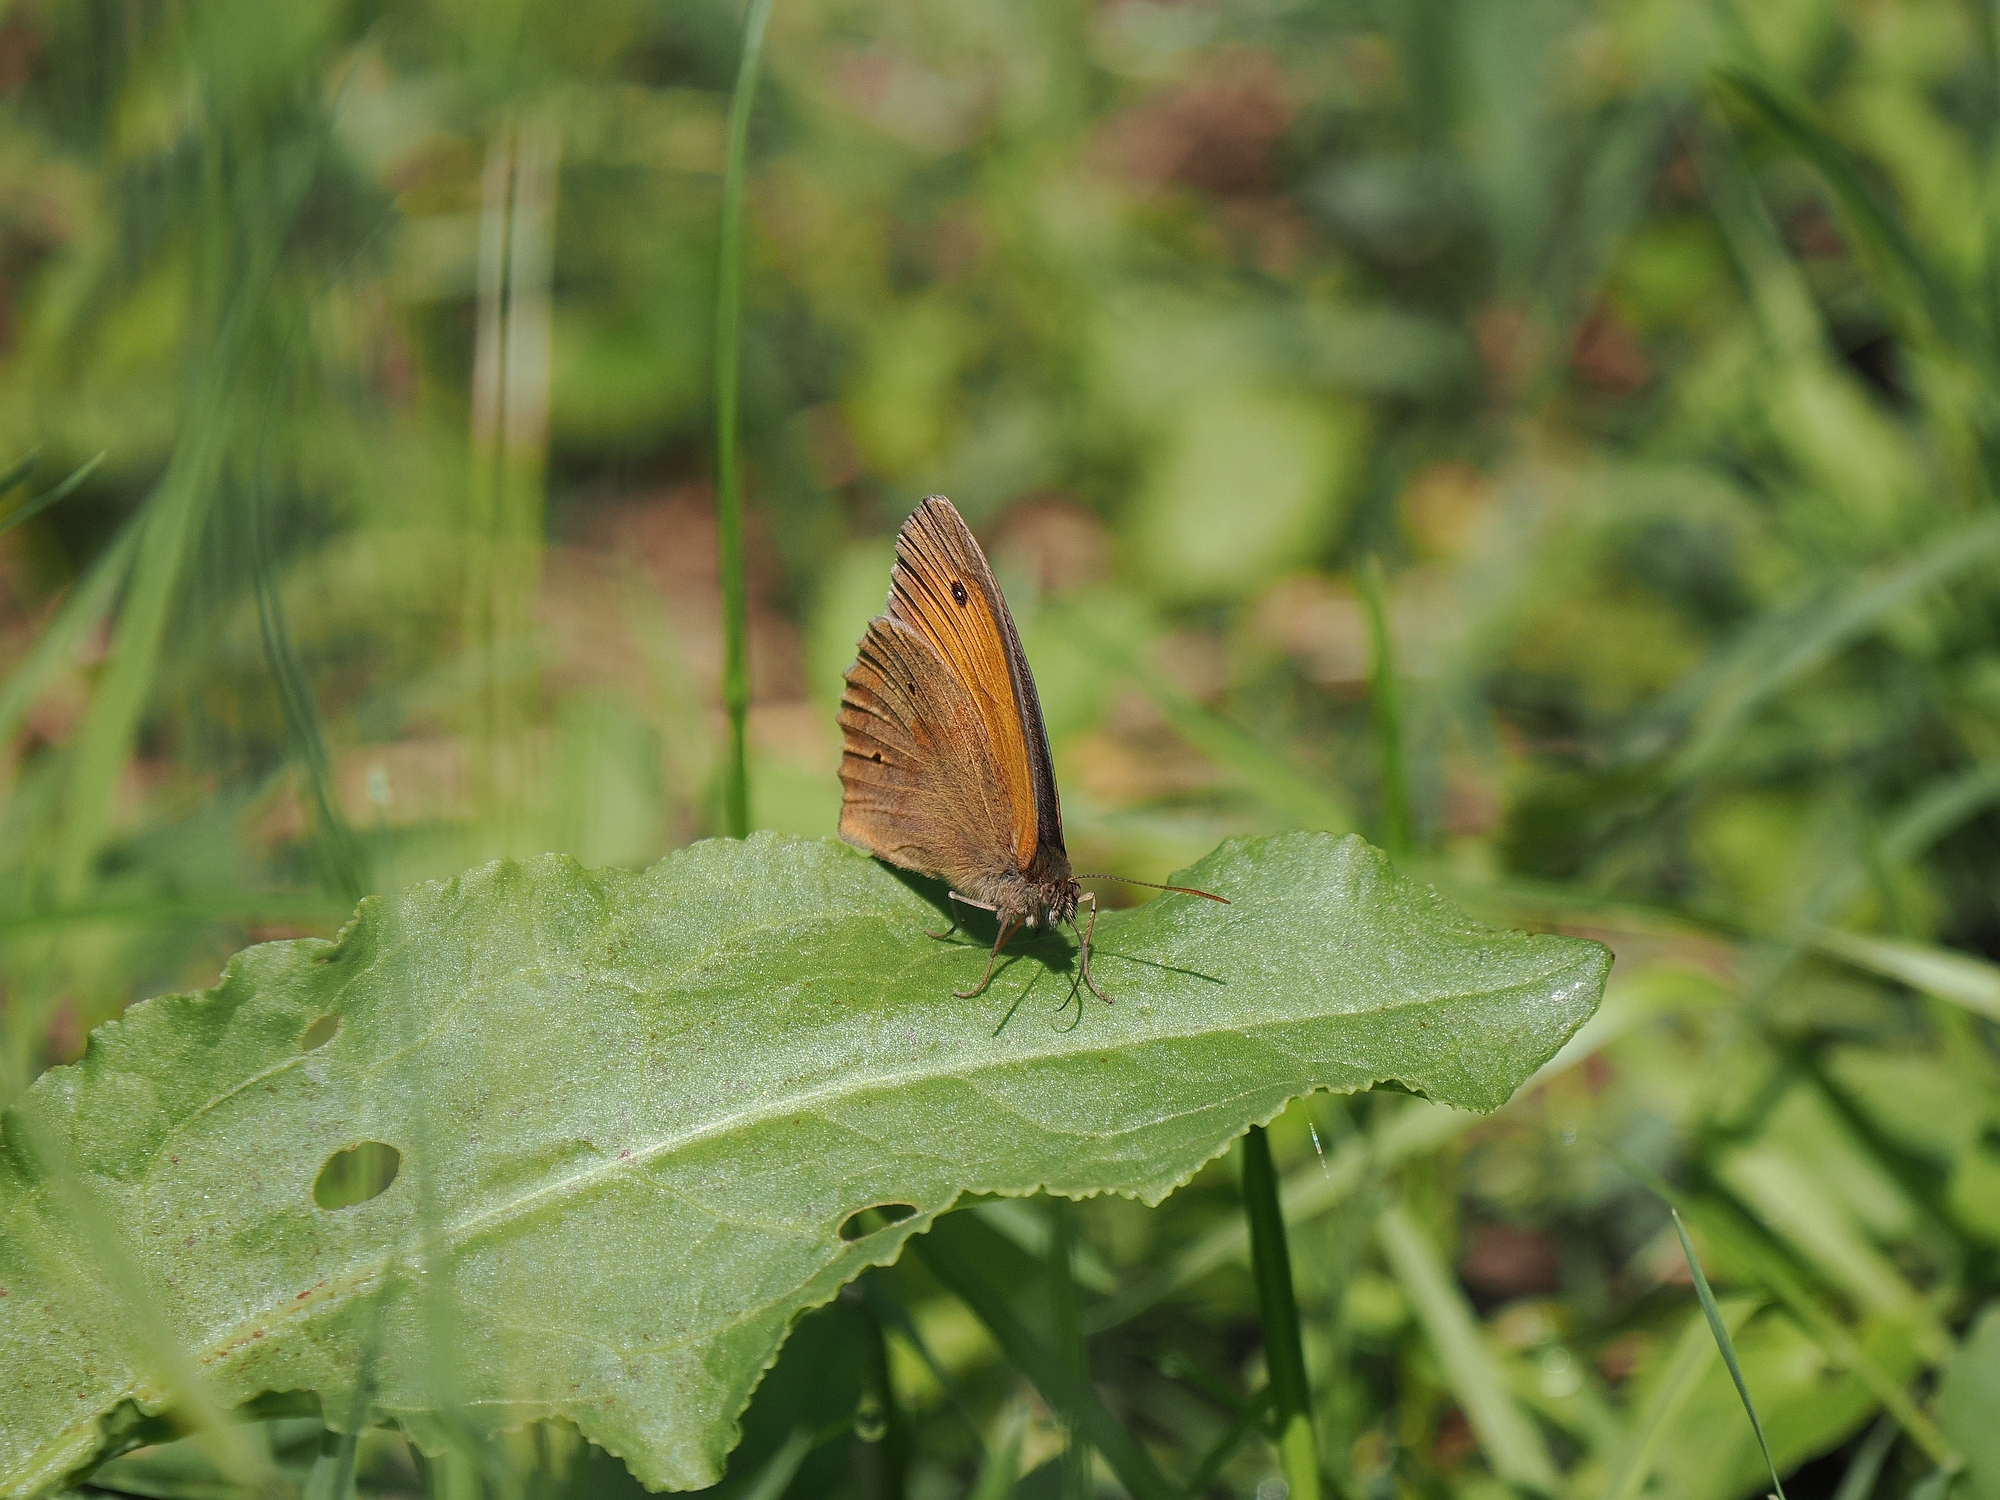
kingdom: Animalia
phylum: Arthropoda
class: Insecta
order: Lepidoptera
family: Nymphalidae
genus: Maniola
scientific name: Maniola jurtina
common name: Meadow brown
